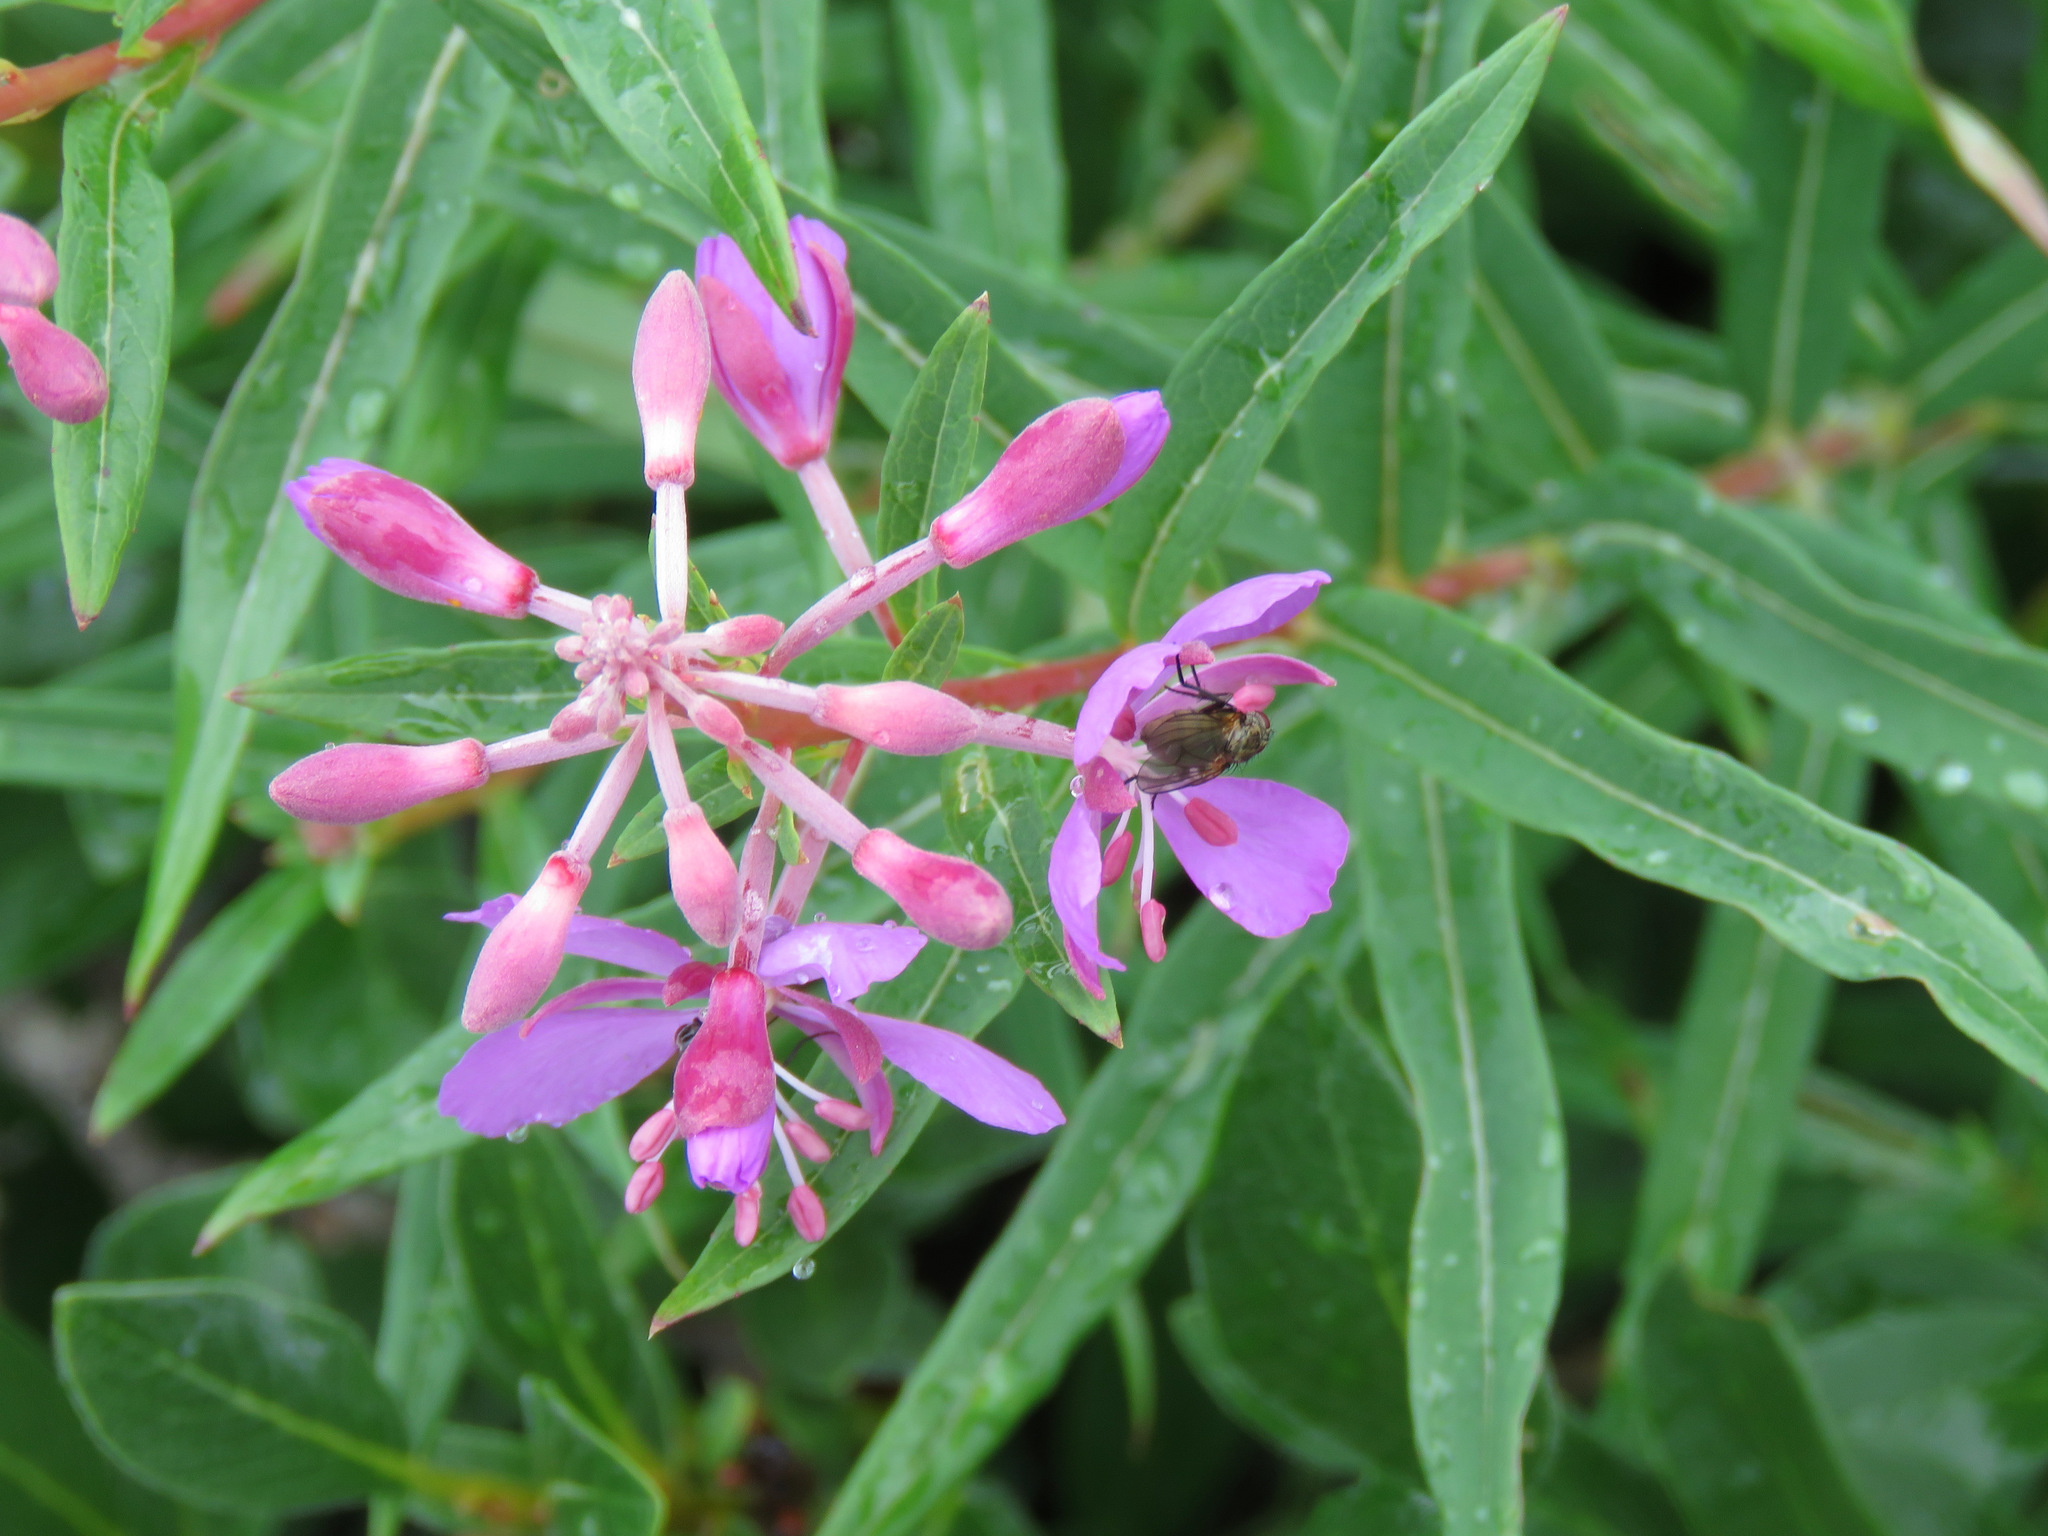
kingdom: Plantae
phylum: Tracheophyta
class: Magnoliopsida
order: Myrtales
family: Onagraceae
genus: Chamaenerion
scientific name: Chamaenerion angustifolium
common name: Fireweed
